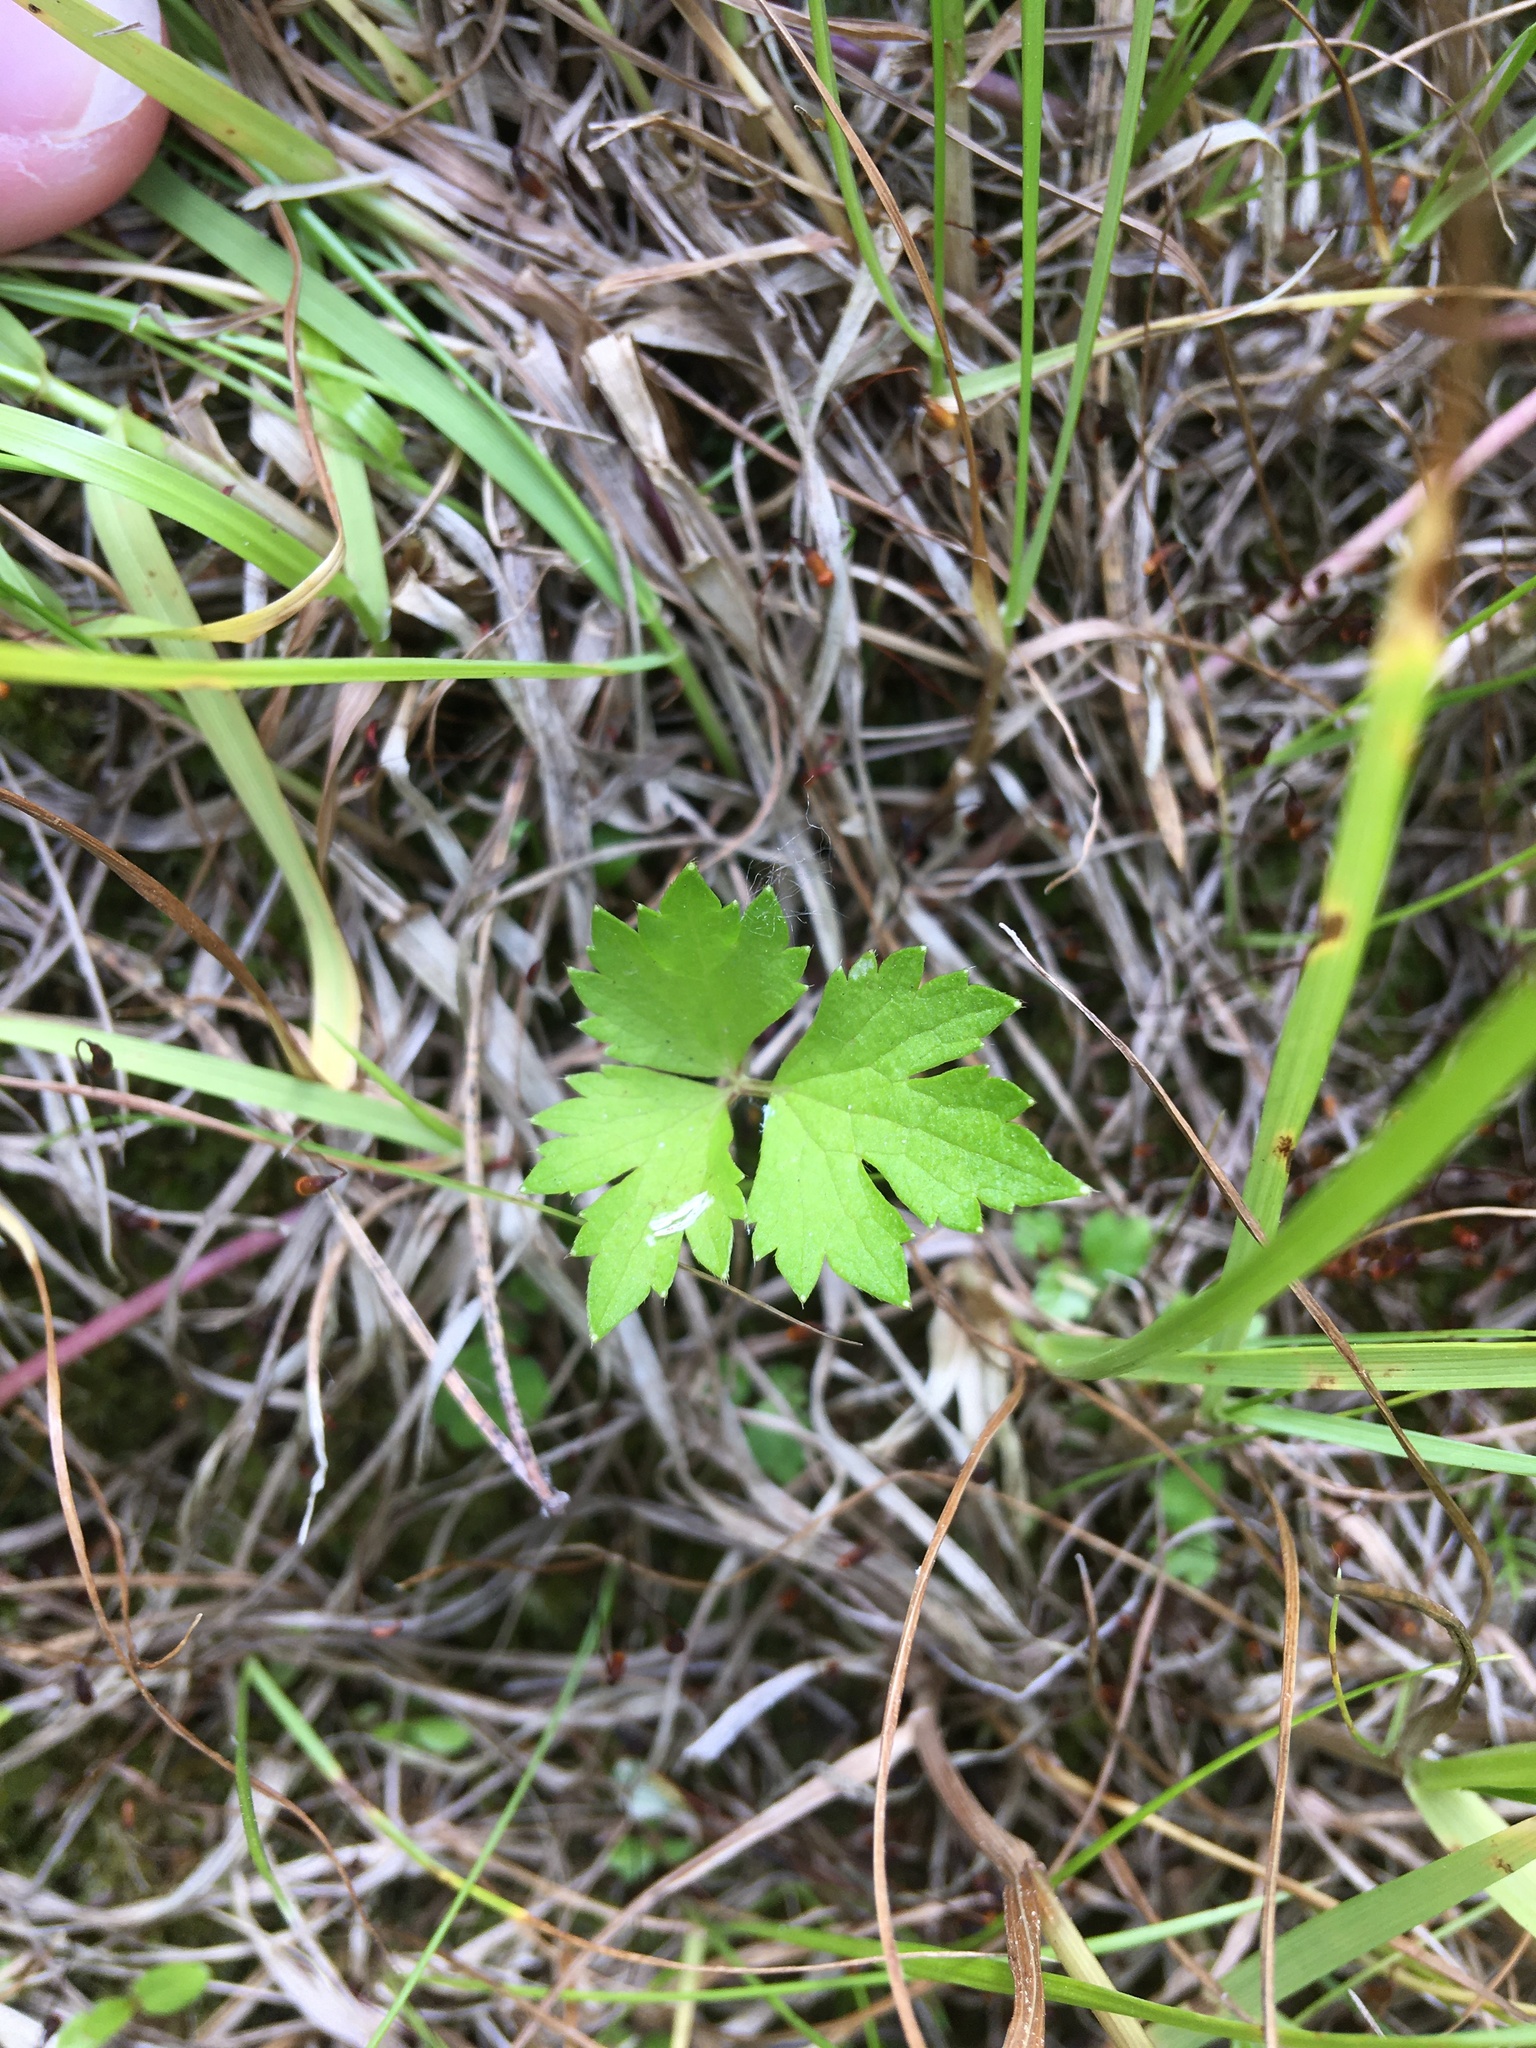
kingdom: Plantae
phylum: Tracheophyta
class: Magnoliopsida
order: Ranunculales
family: Ranunculaceae
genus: Ranunculus
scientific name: Ranunculus repens
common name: Creeping buttercup
